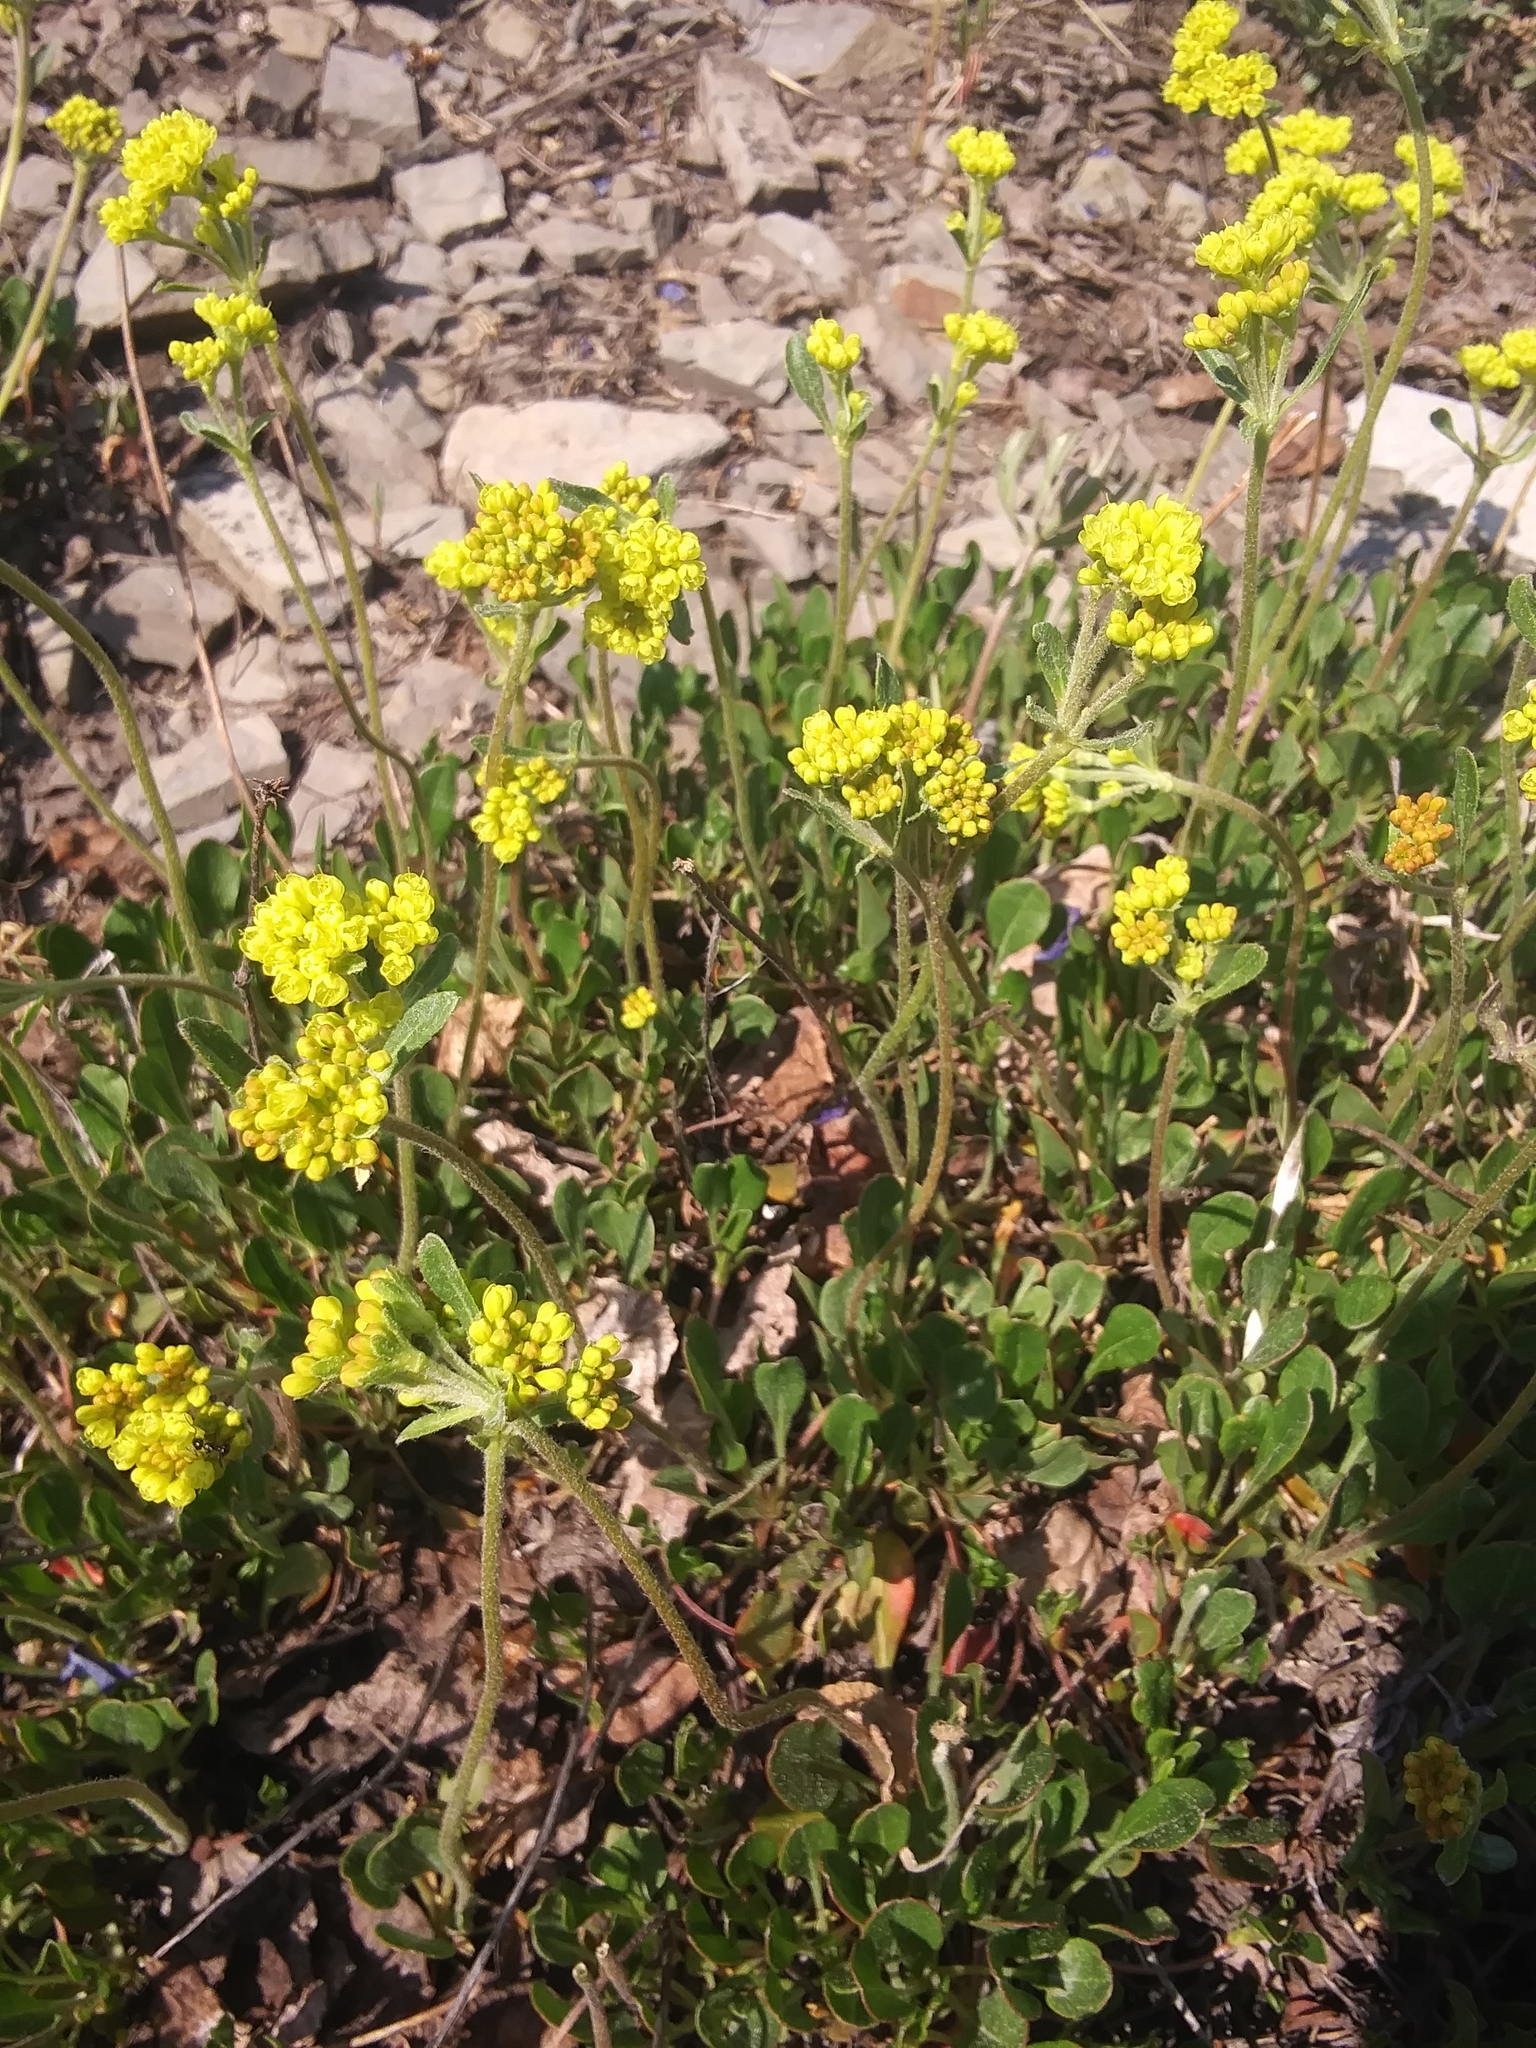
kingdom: Plantae
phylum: Tracheophyta
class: Magnoliopsida
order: Caryophyllales
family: Polygonaceae
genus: Eriogonum
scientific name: Eriogonum umbellatum
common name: Sulfur-buckwheat
